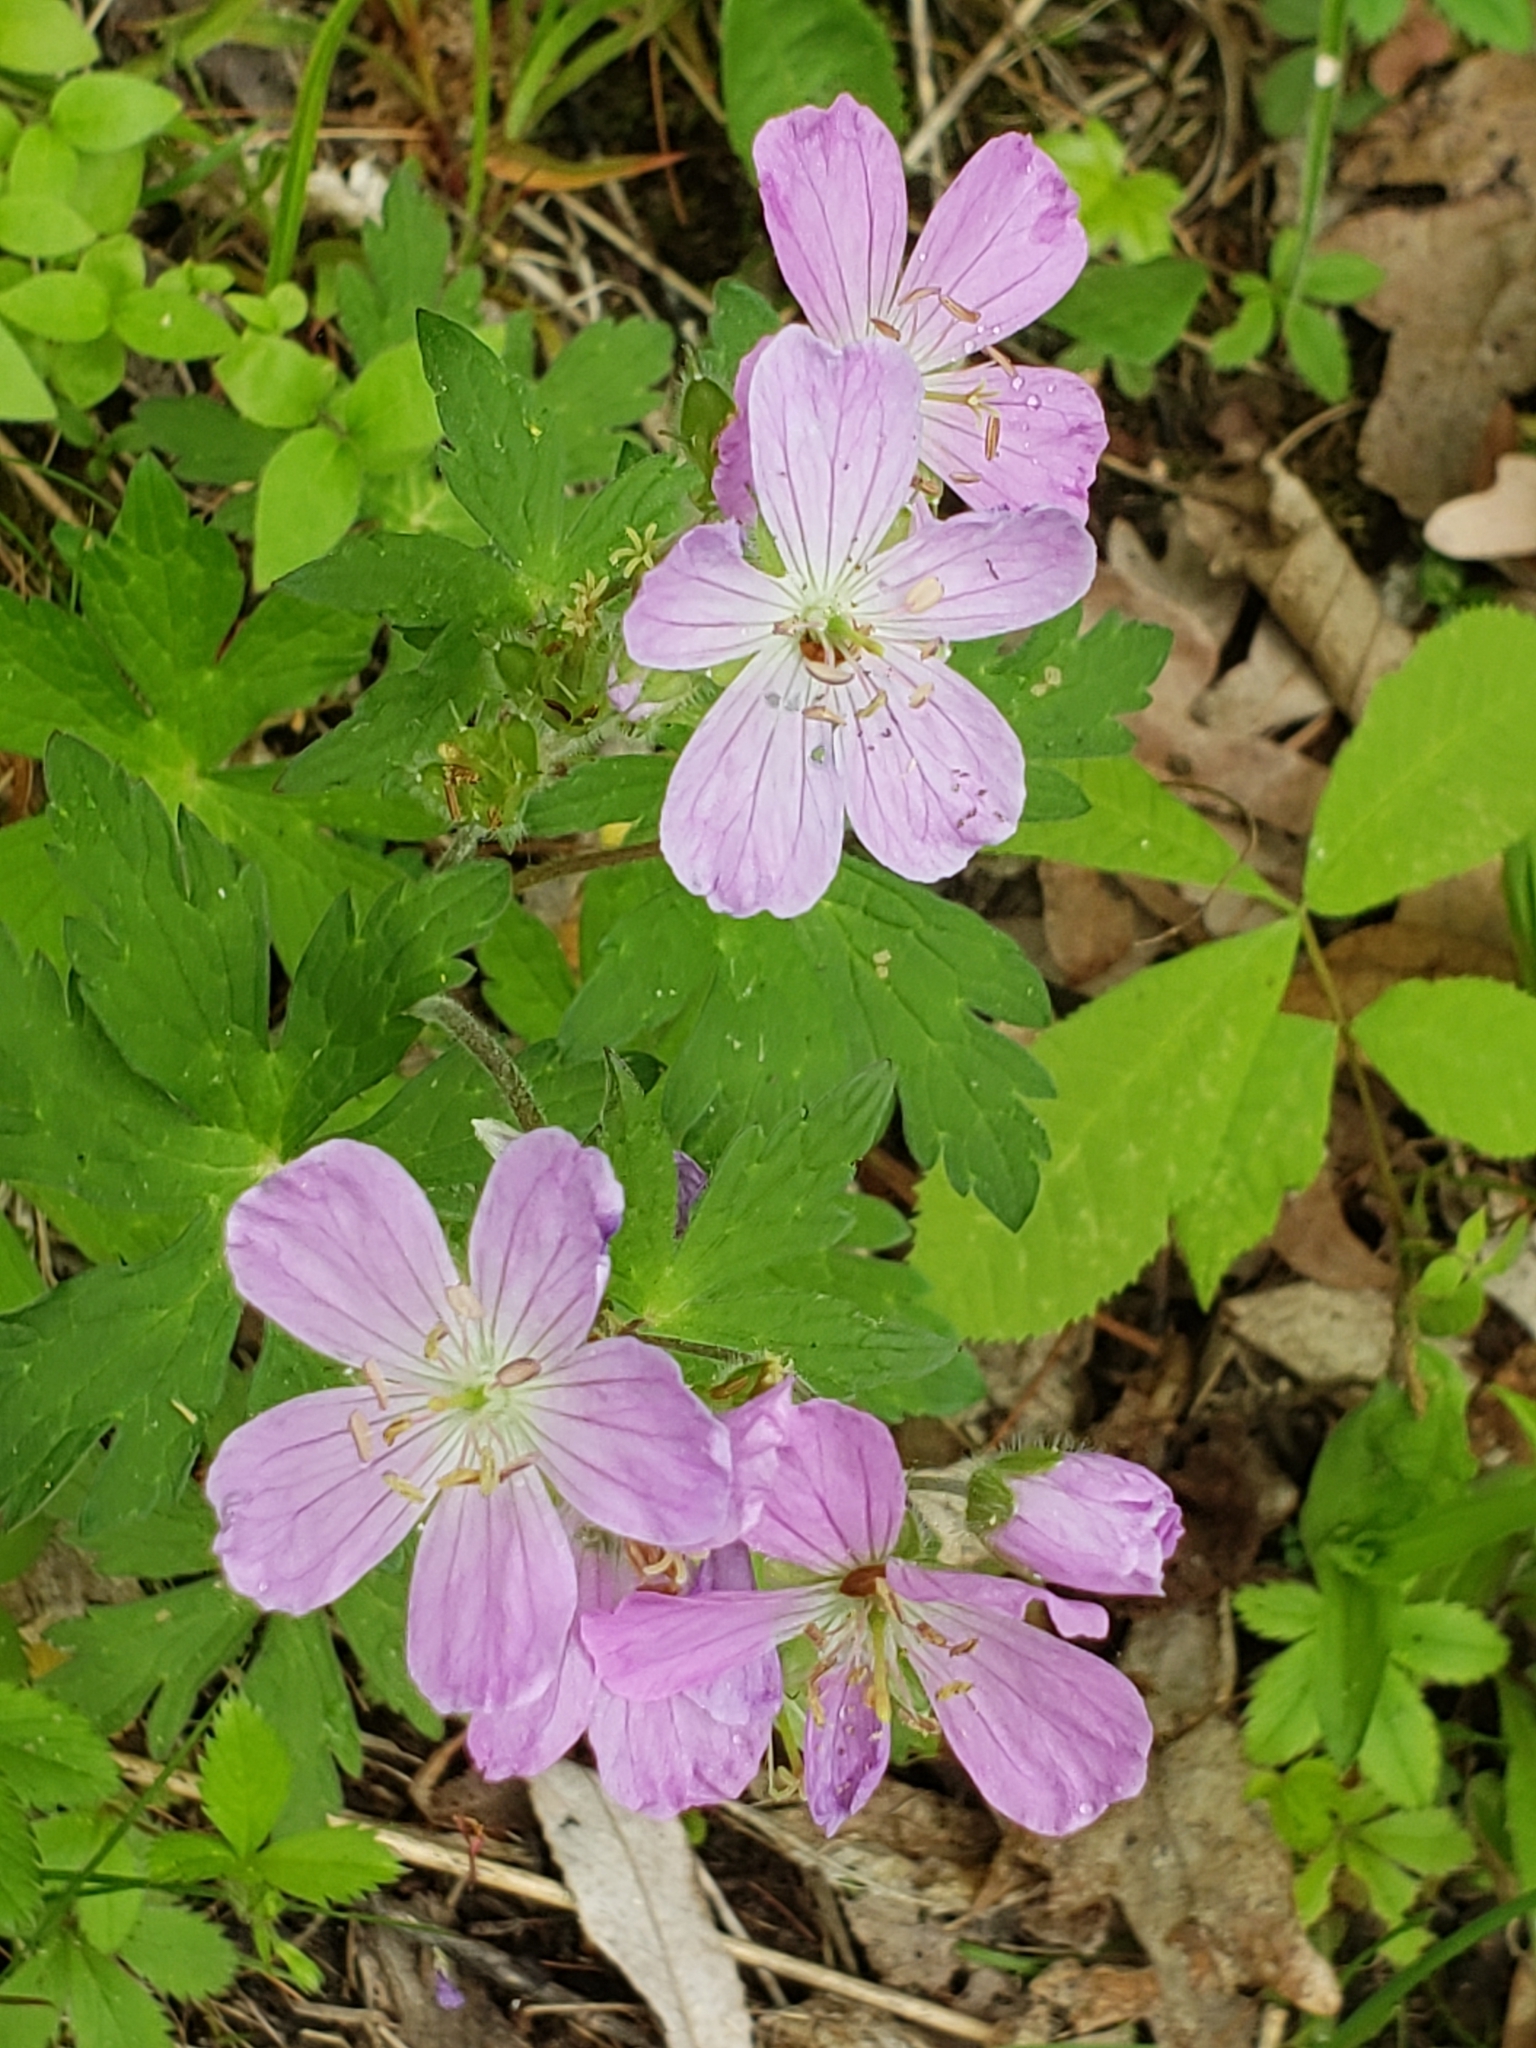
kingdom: Plantae
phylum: Tracheophyta
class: Magnoliopsida
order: Geraniales
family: Geraniaceae
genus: Geranium
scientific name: Geranium maculatum
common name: Spotted geranium
